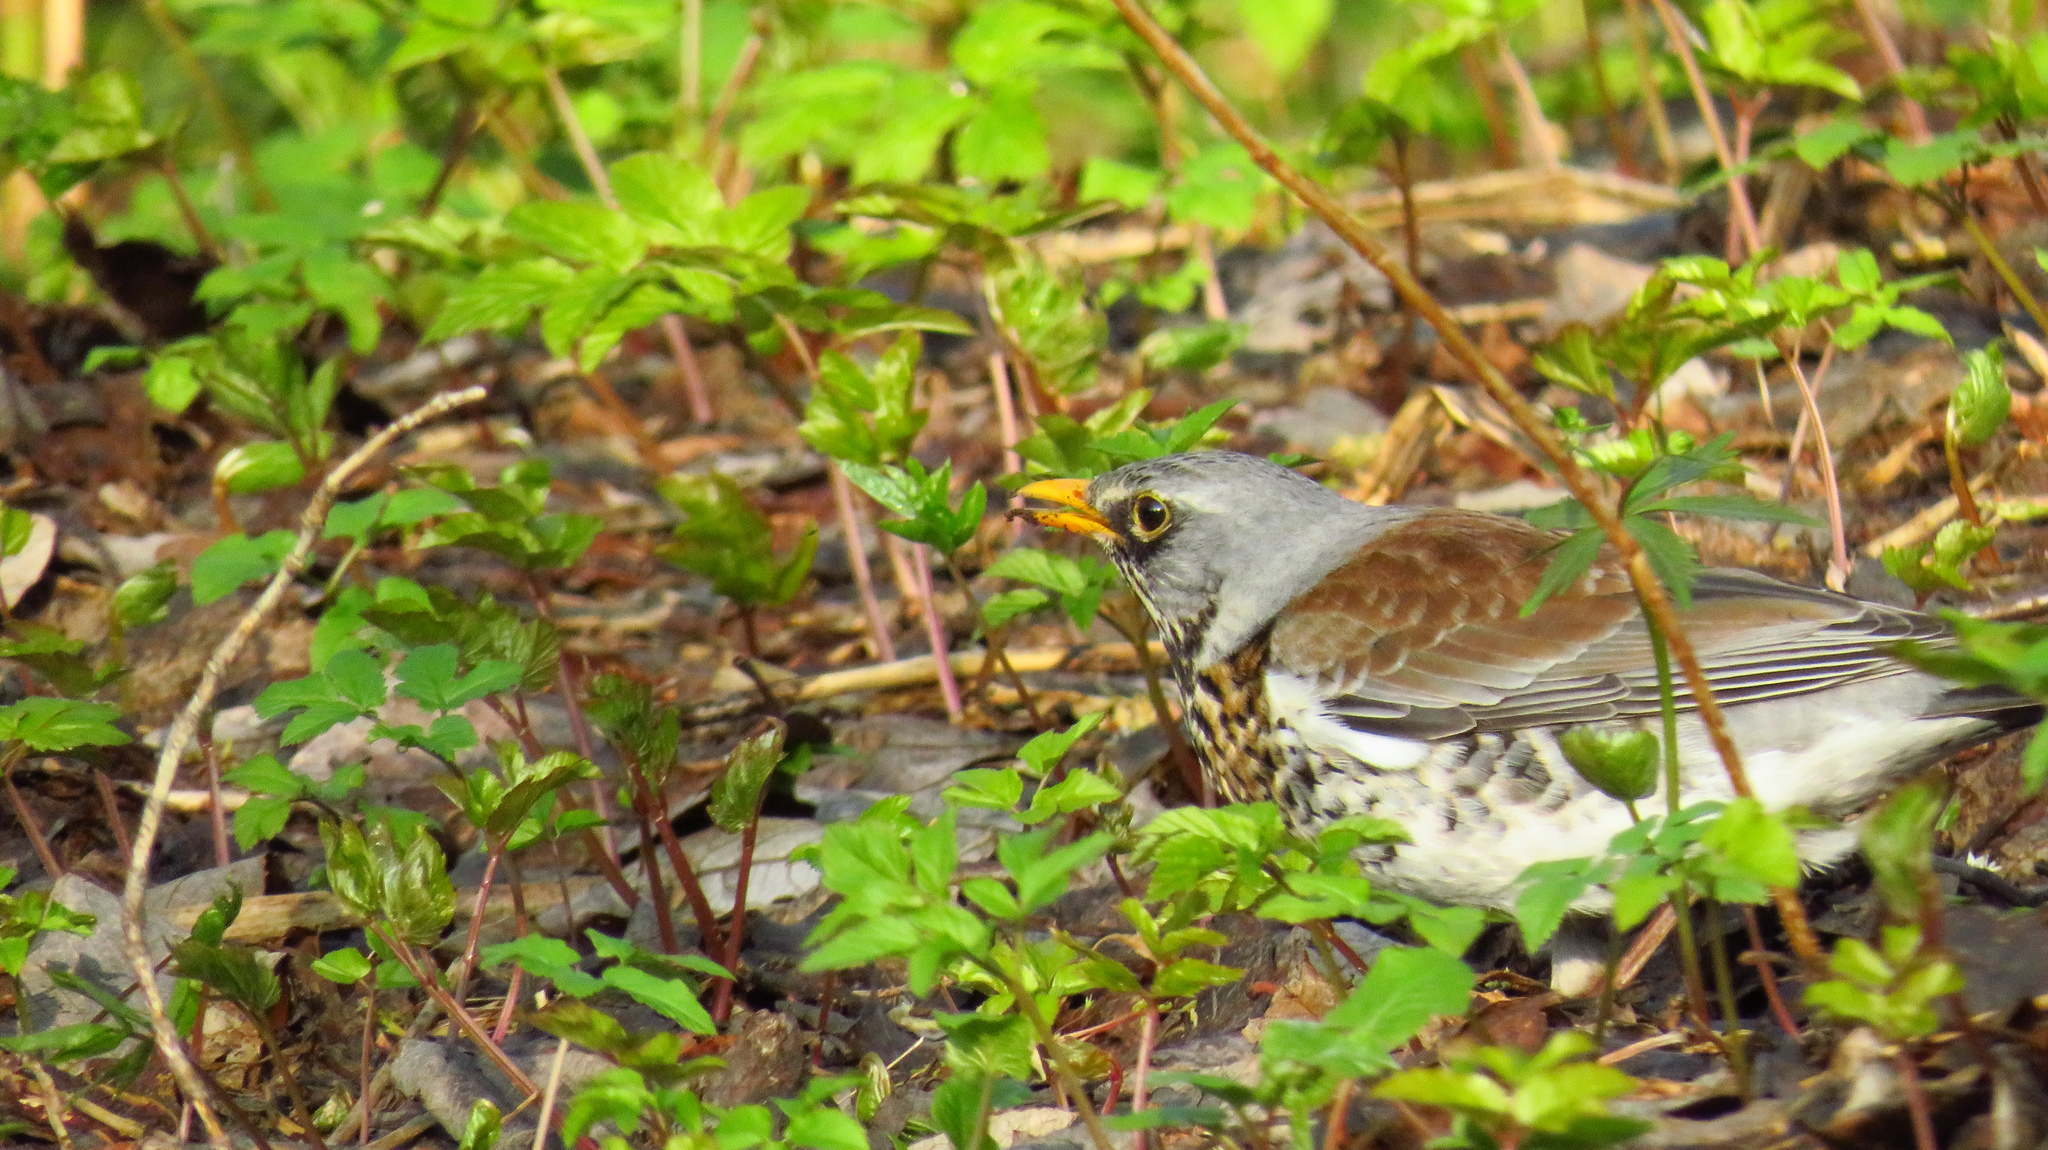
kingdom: Animalia
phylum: Chordata
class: Aves
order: Passeriformes
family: Turdidae
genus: Turdus
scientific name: Turdus pilaris
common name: Fieldfare
